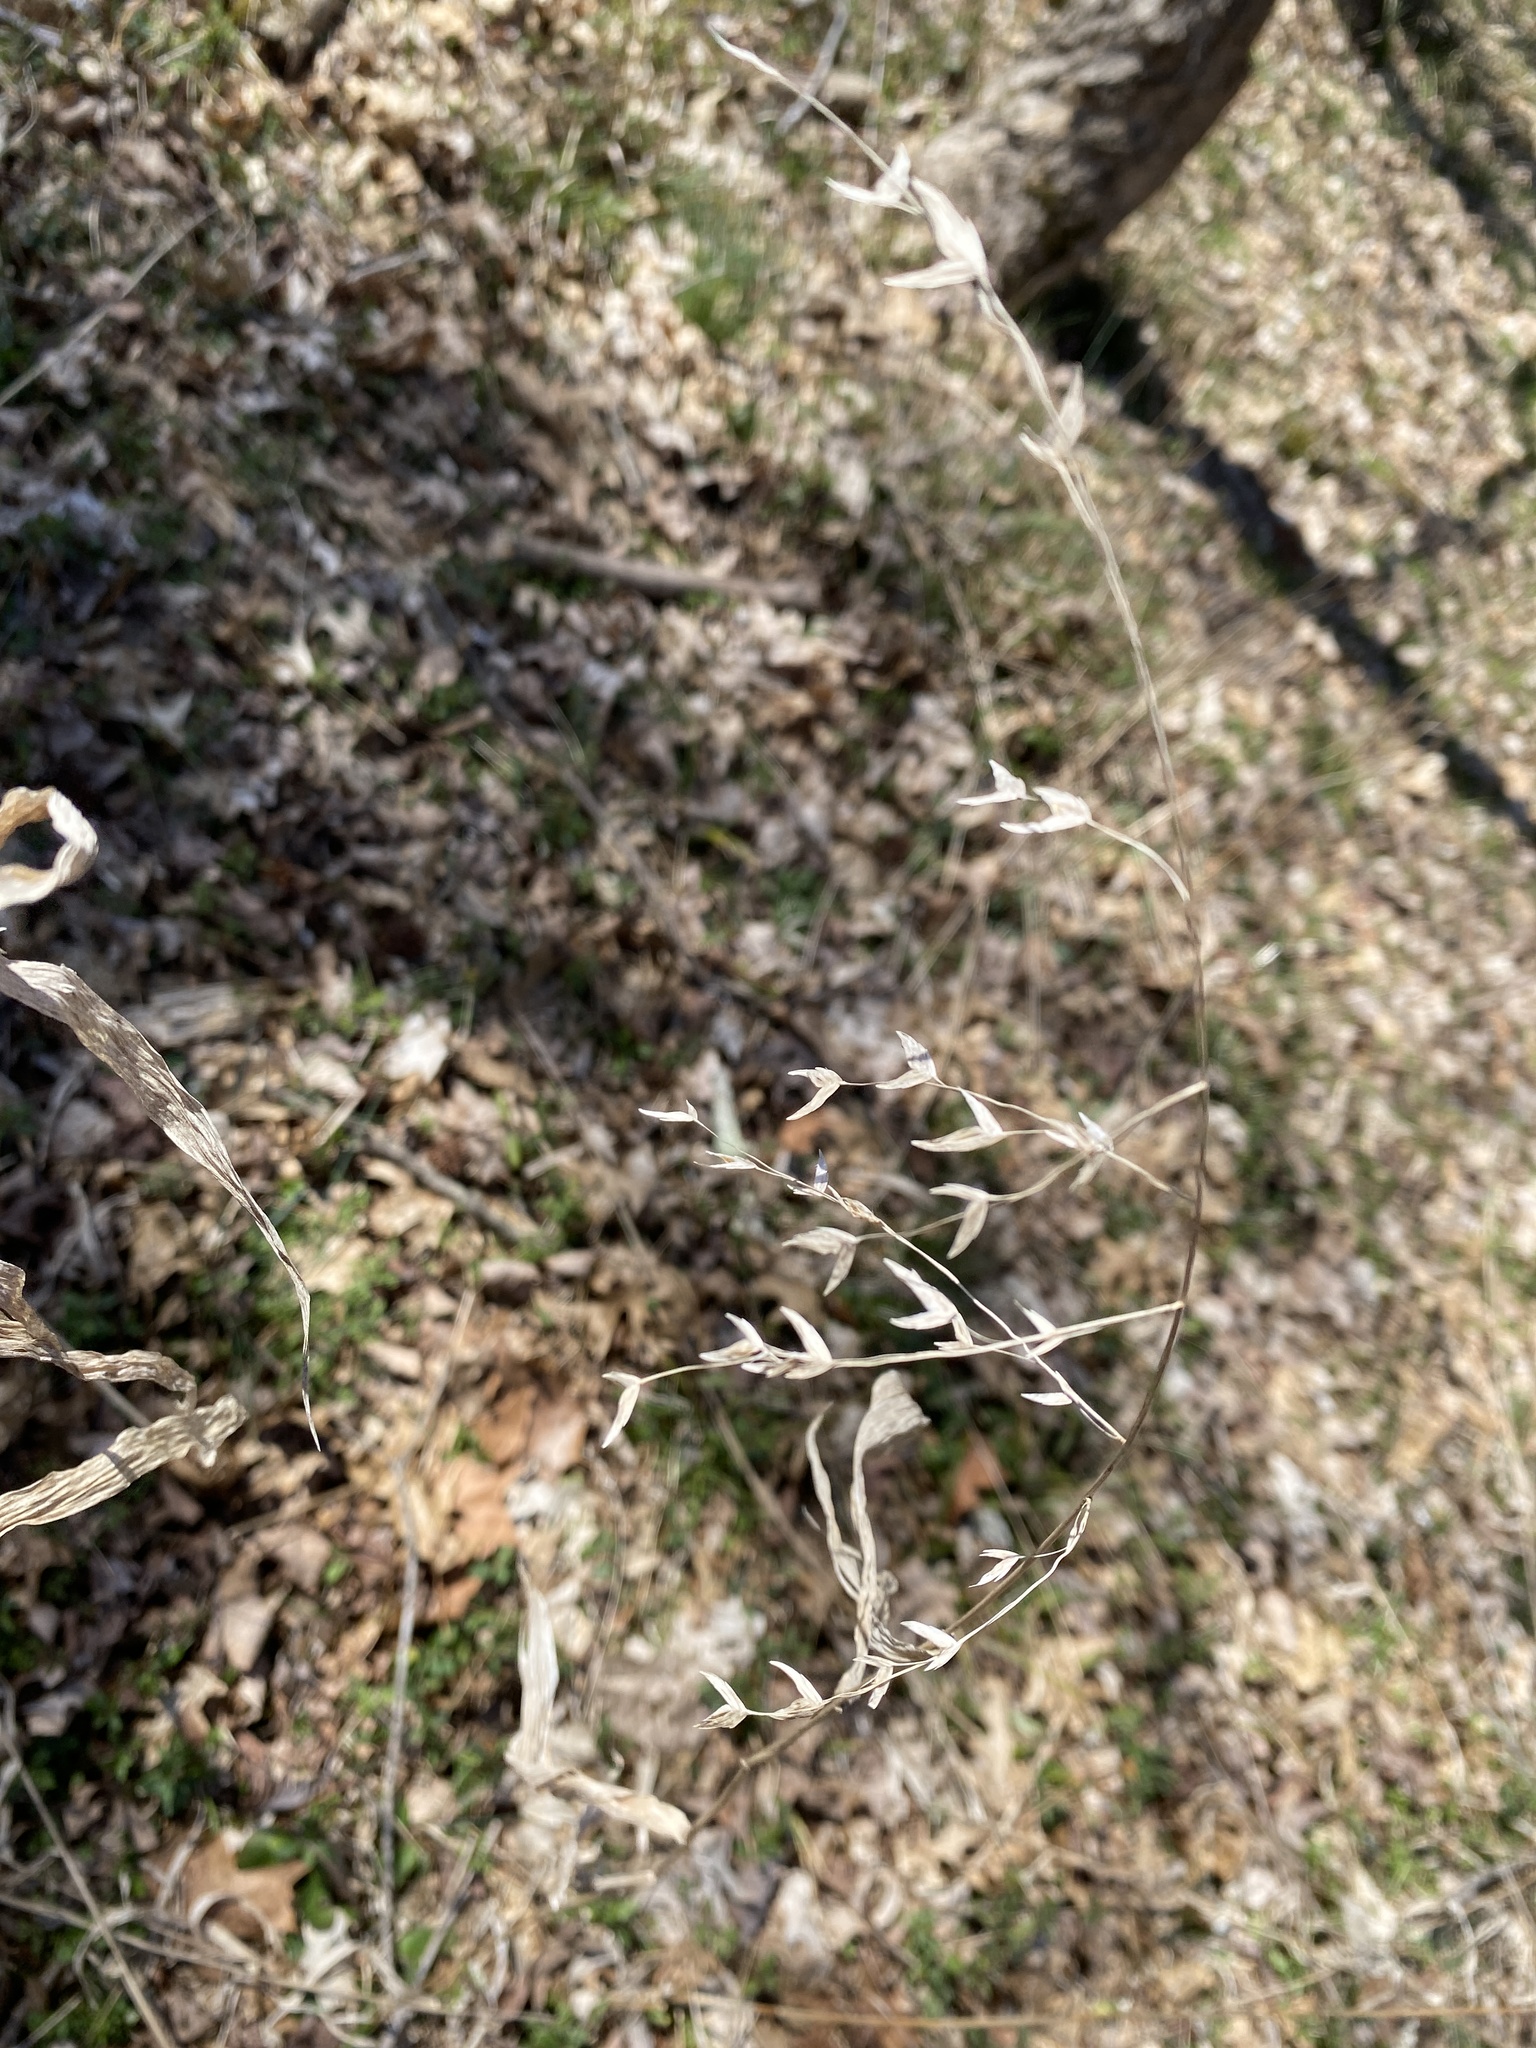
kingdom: Plantae
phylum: Tracheophyta
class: Liliopsida
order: Poales
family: Poaceae
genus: Chasmanthium
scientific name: Chasmanthium latifolium
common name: Broad-leaved chasmanthium
